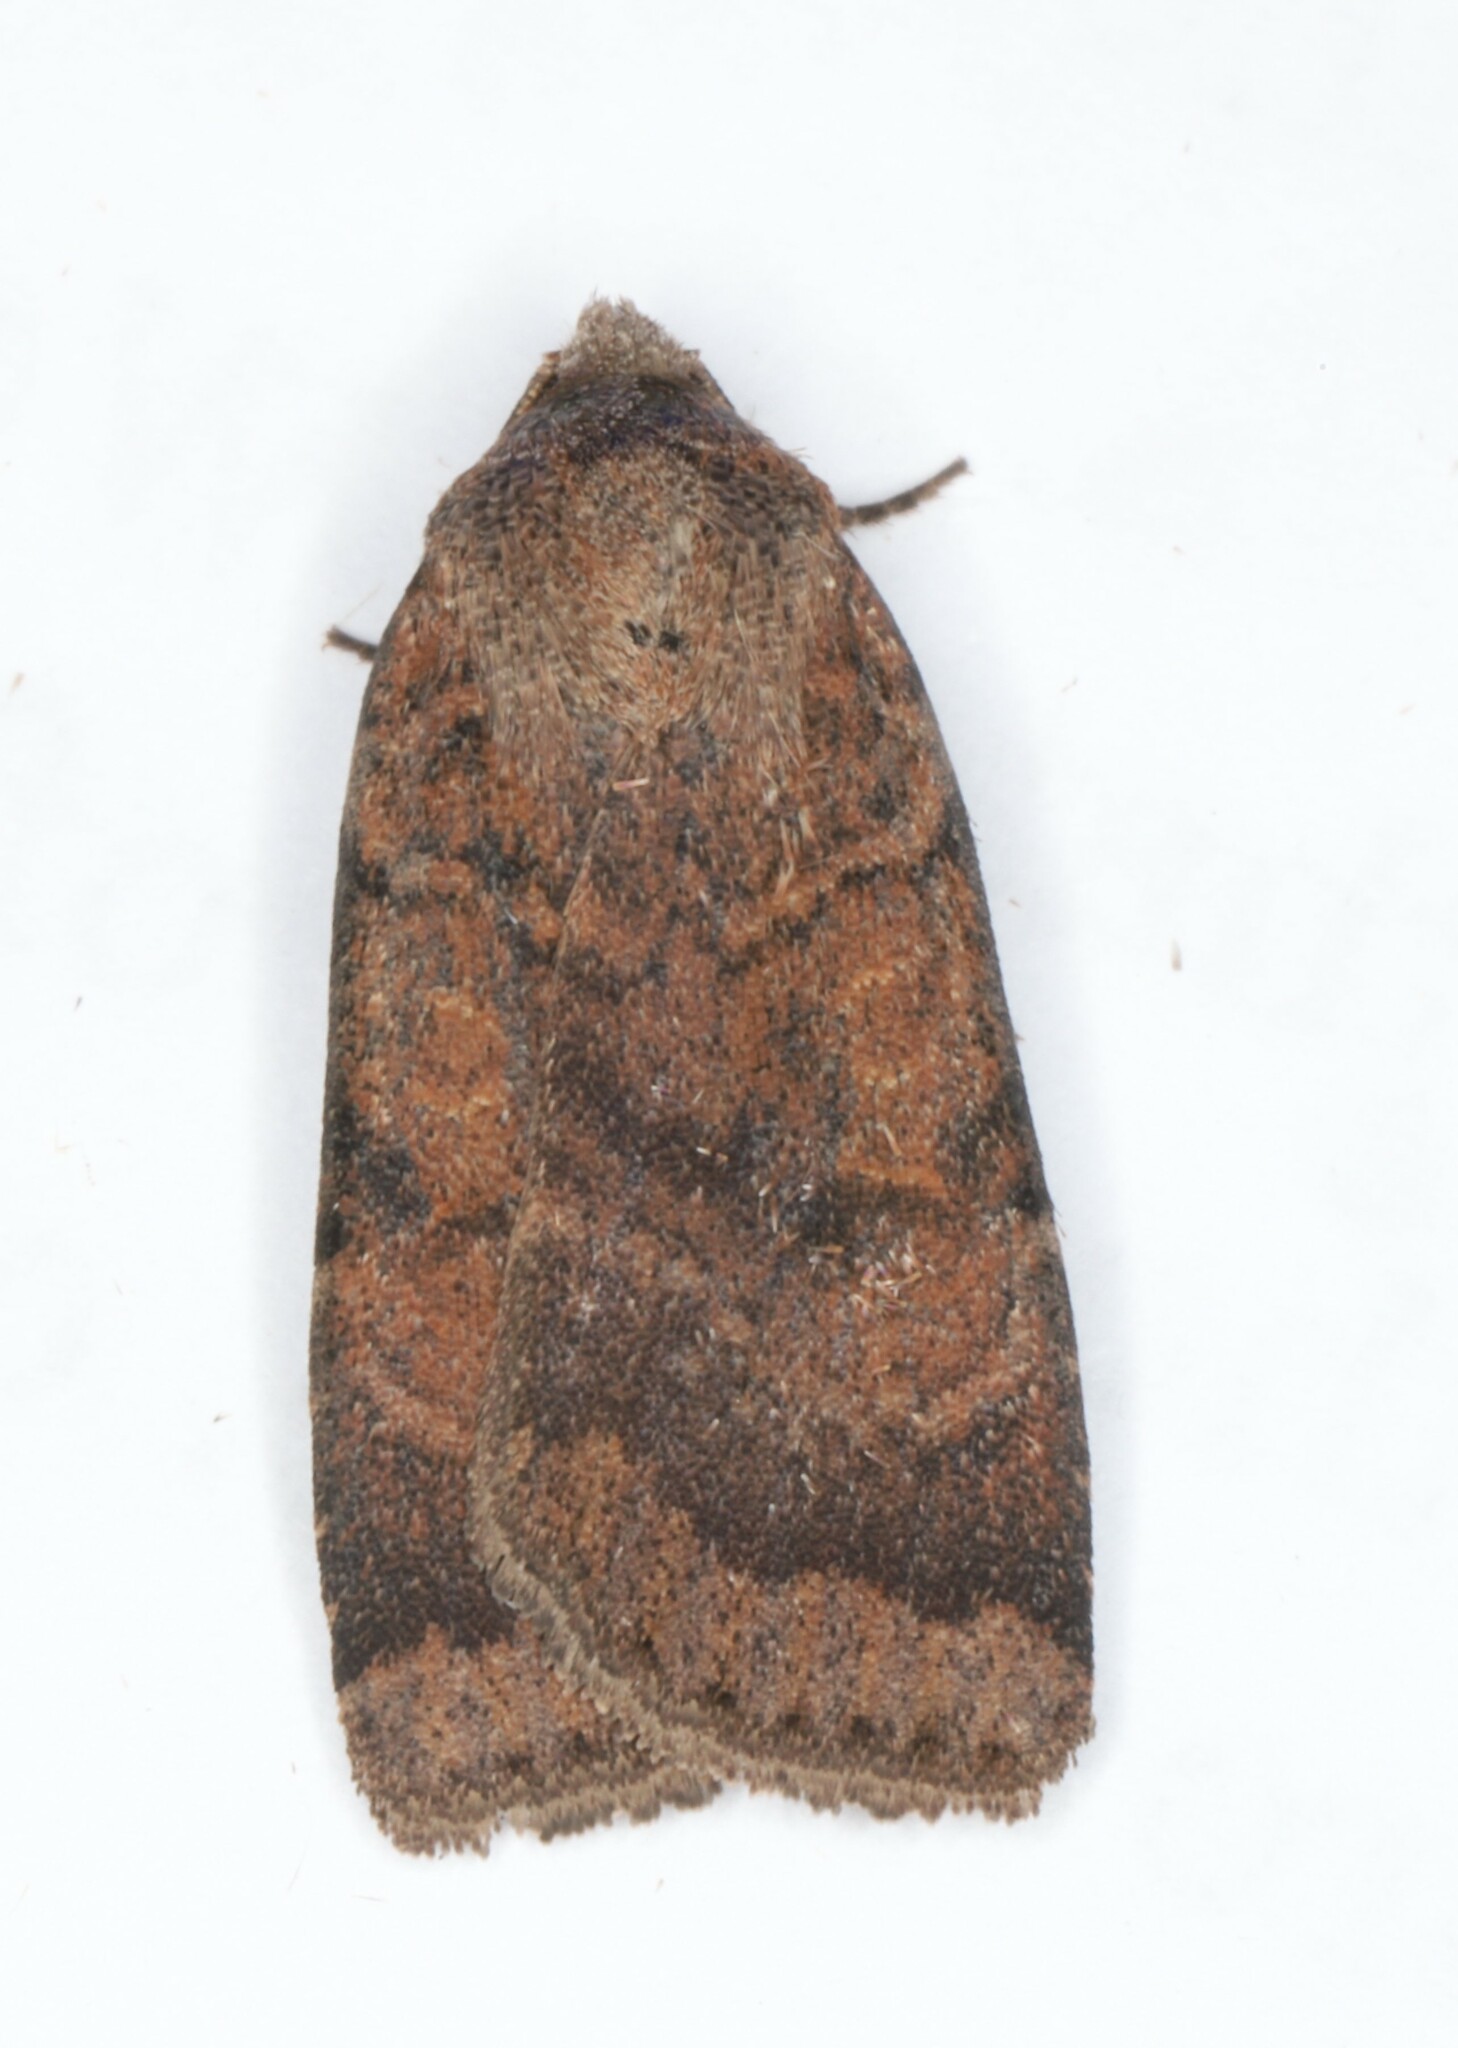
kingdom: Animalia
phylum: Arthropoda
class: Insecta
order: Lepidoptera
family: Noctuidae
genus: Abagrotis
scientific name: Abagrotis brunneipennis
